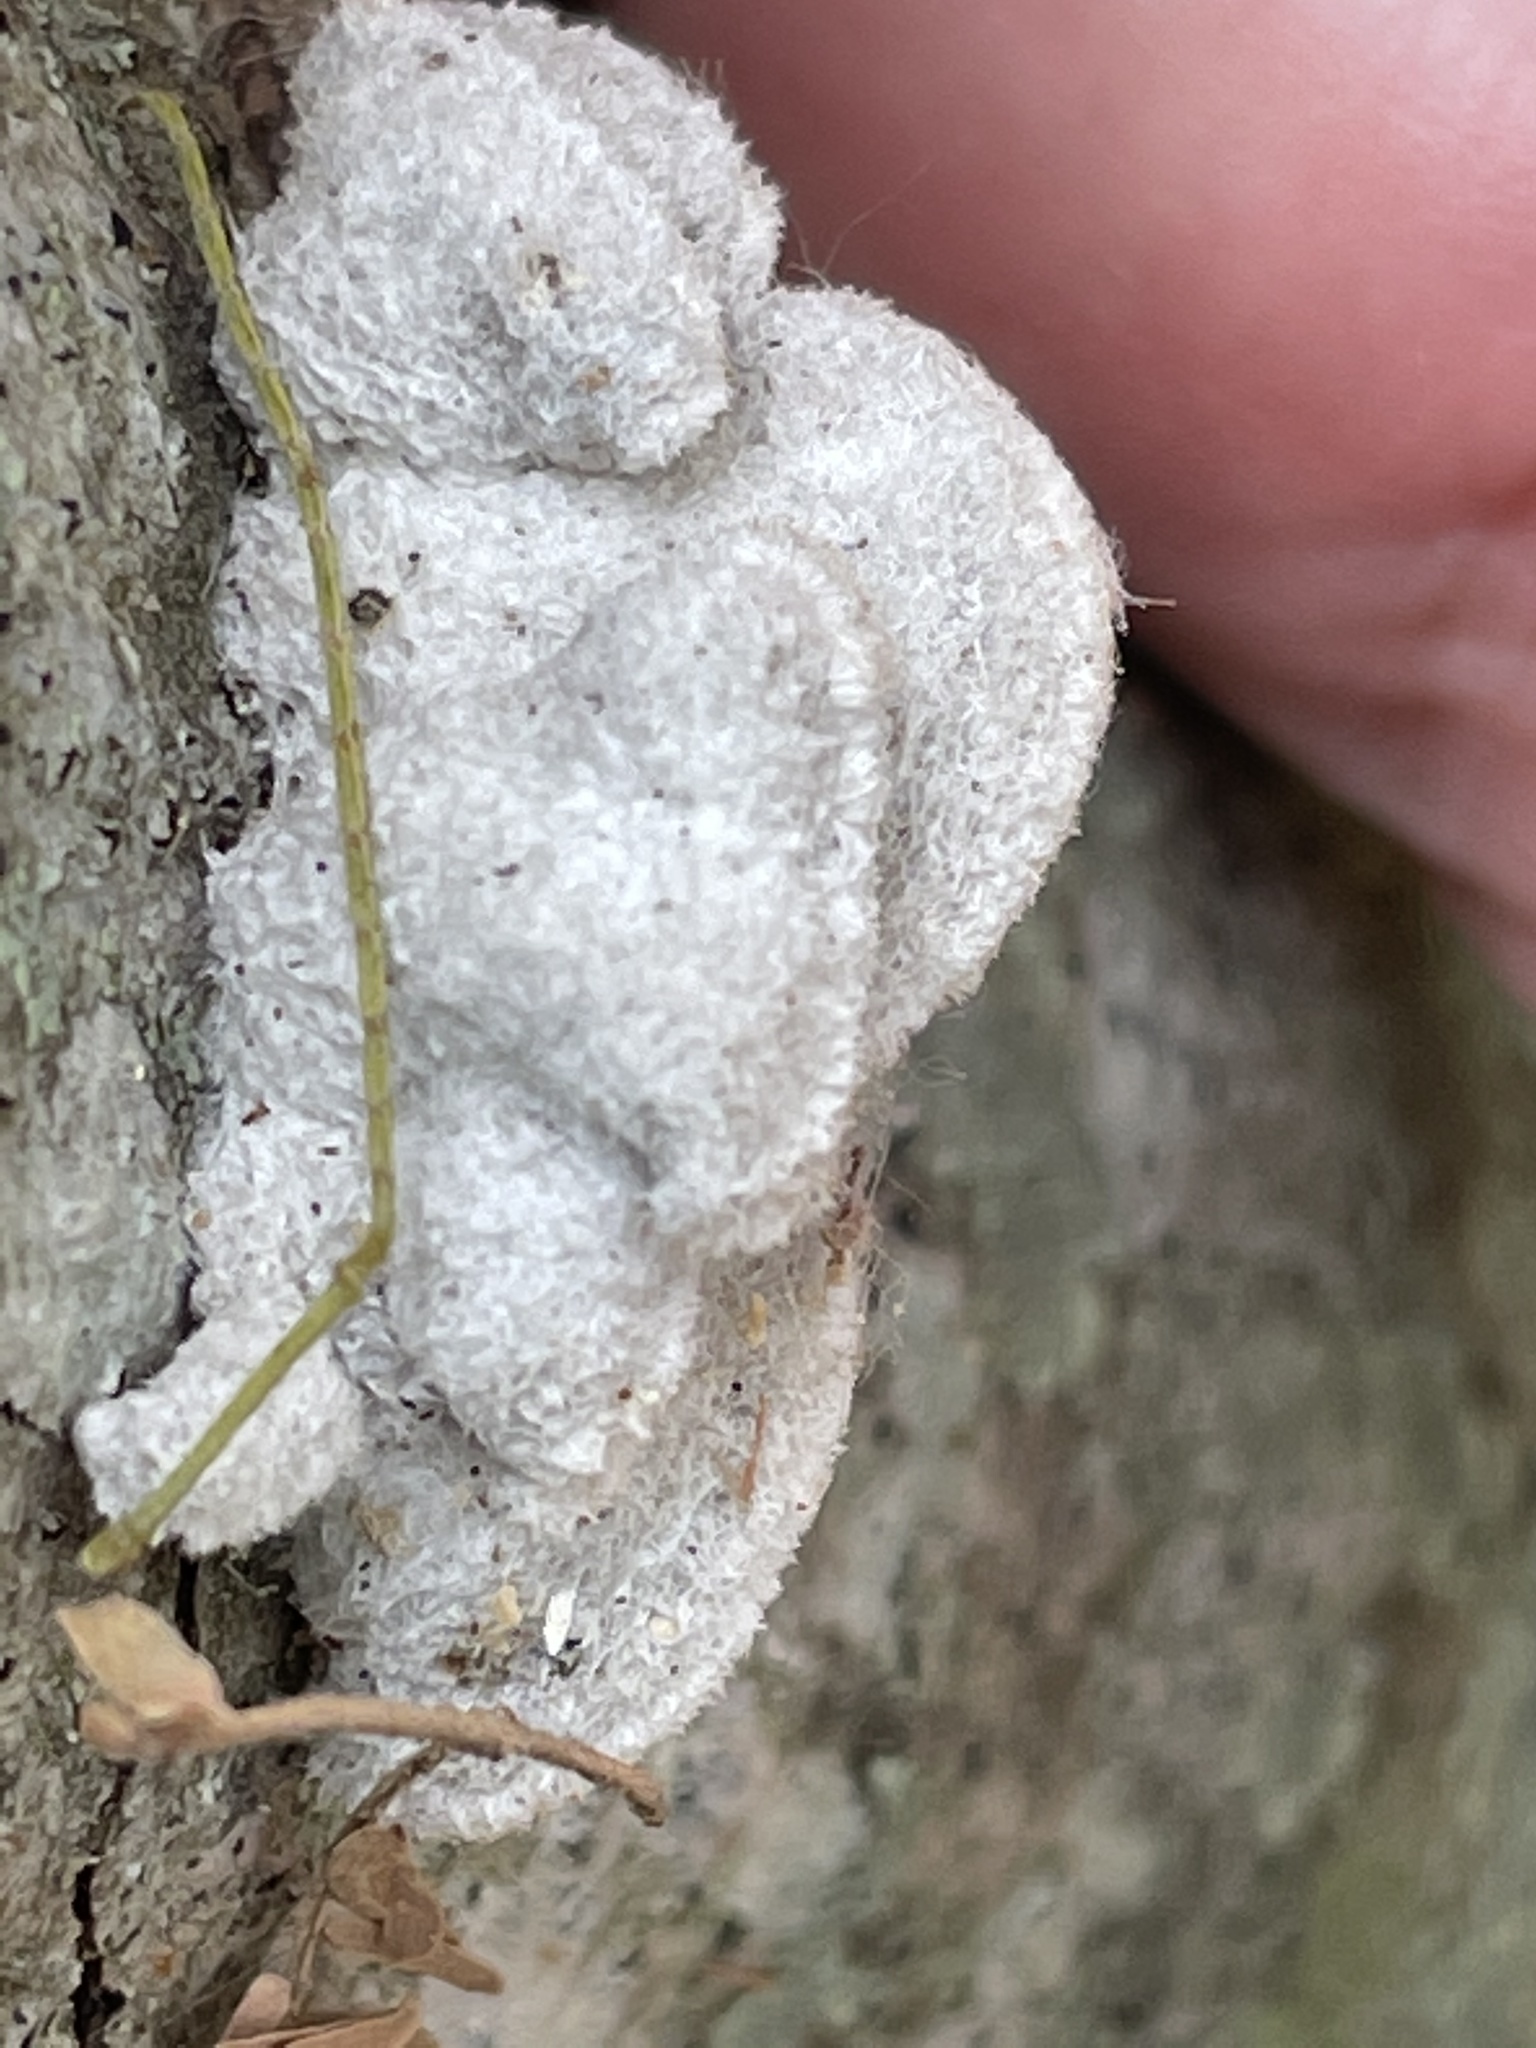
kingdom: Fungi
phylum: Basidiomycota
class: Agaricomycetes
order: Agaricales
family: Schizophyllaceae
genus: Schizophyllum
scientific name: Schizophyllum commune
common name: Common porecrust
